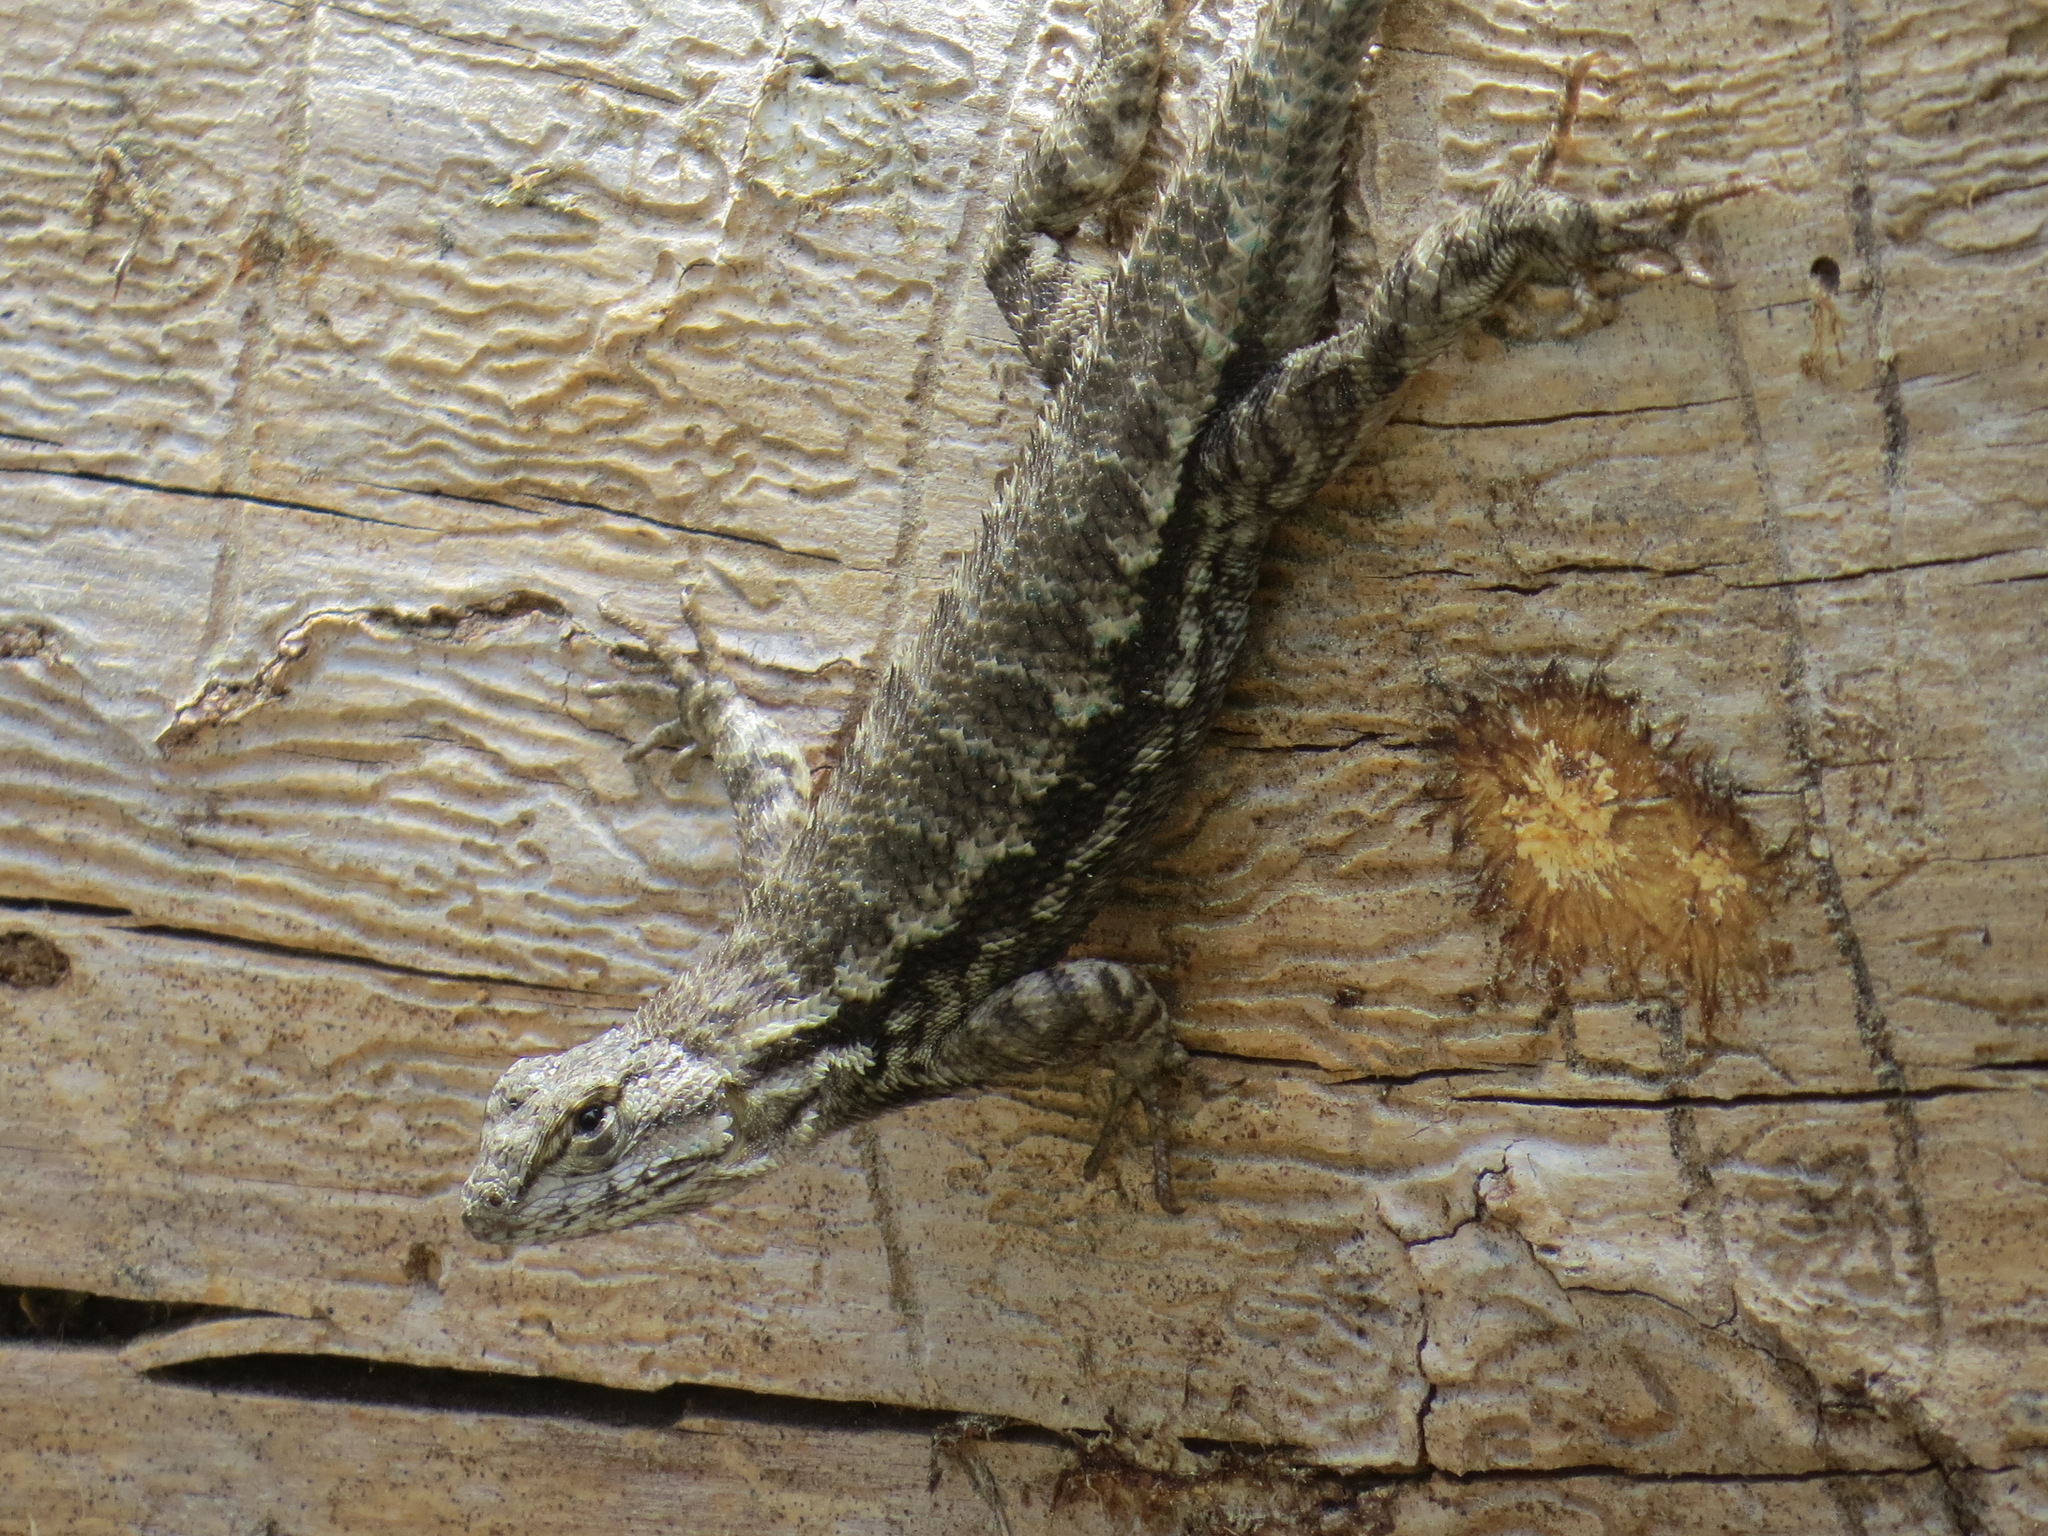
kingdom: Animalia
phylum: Chordata
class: Squamata
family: Phrynosomatidae
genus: Sceloporus
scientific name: Sceloporus occidentalis
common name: Western fence lizard
